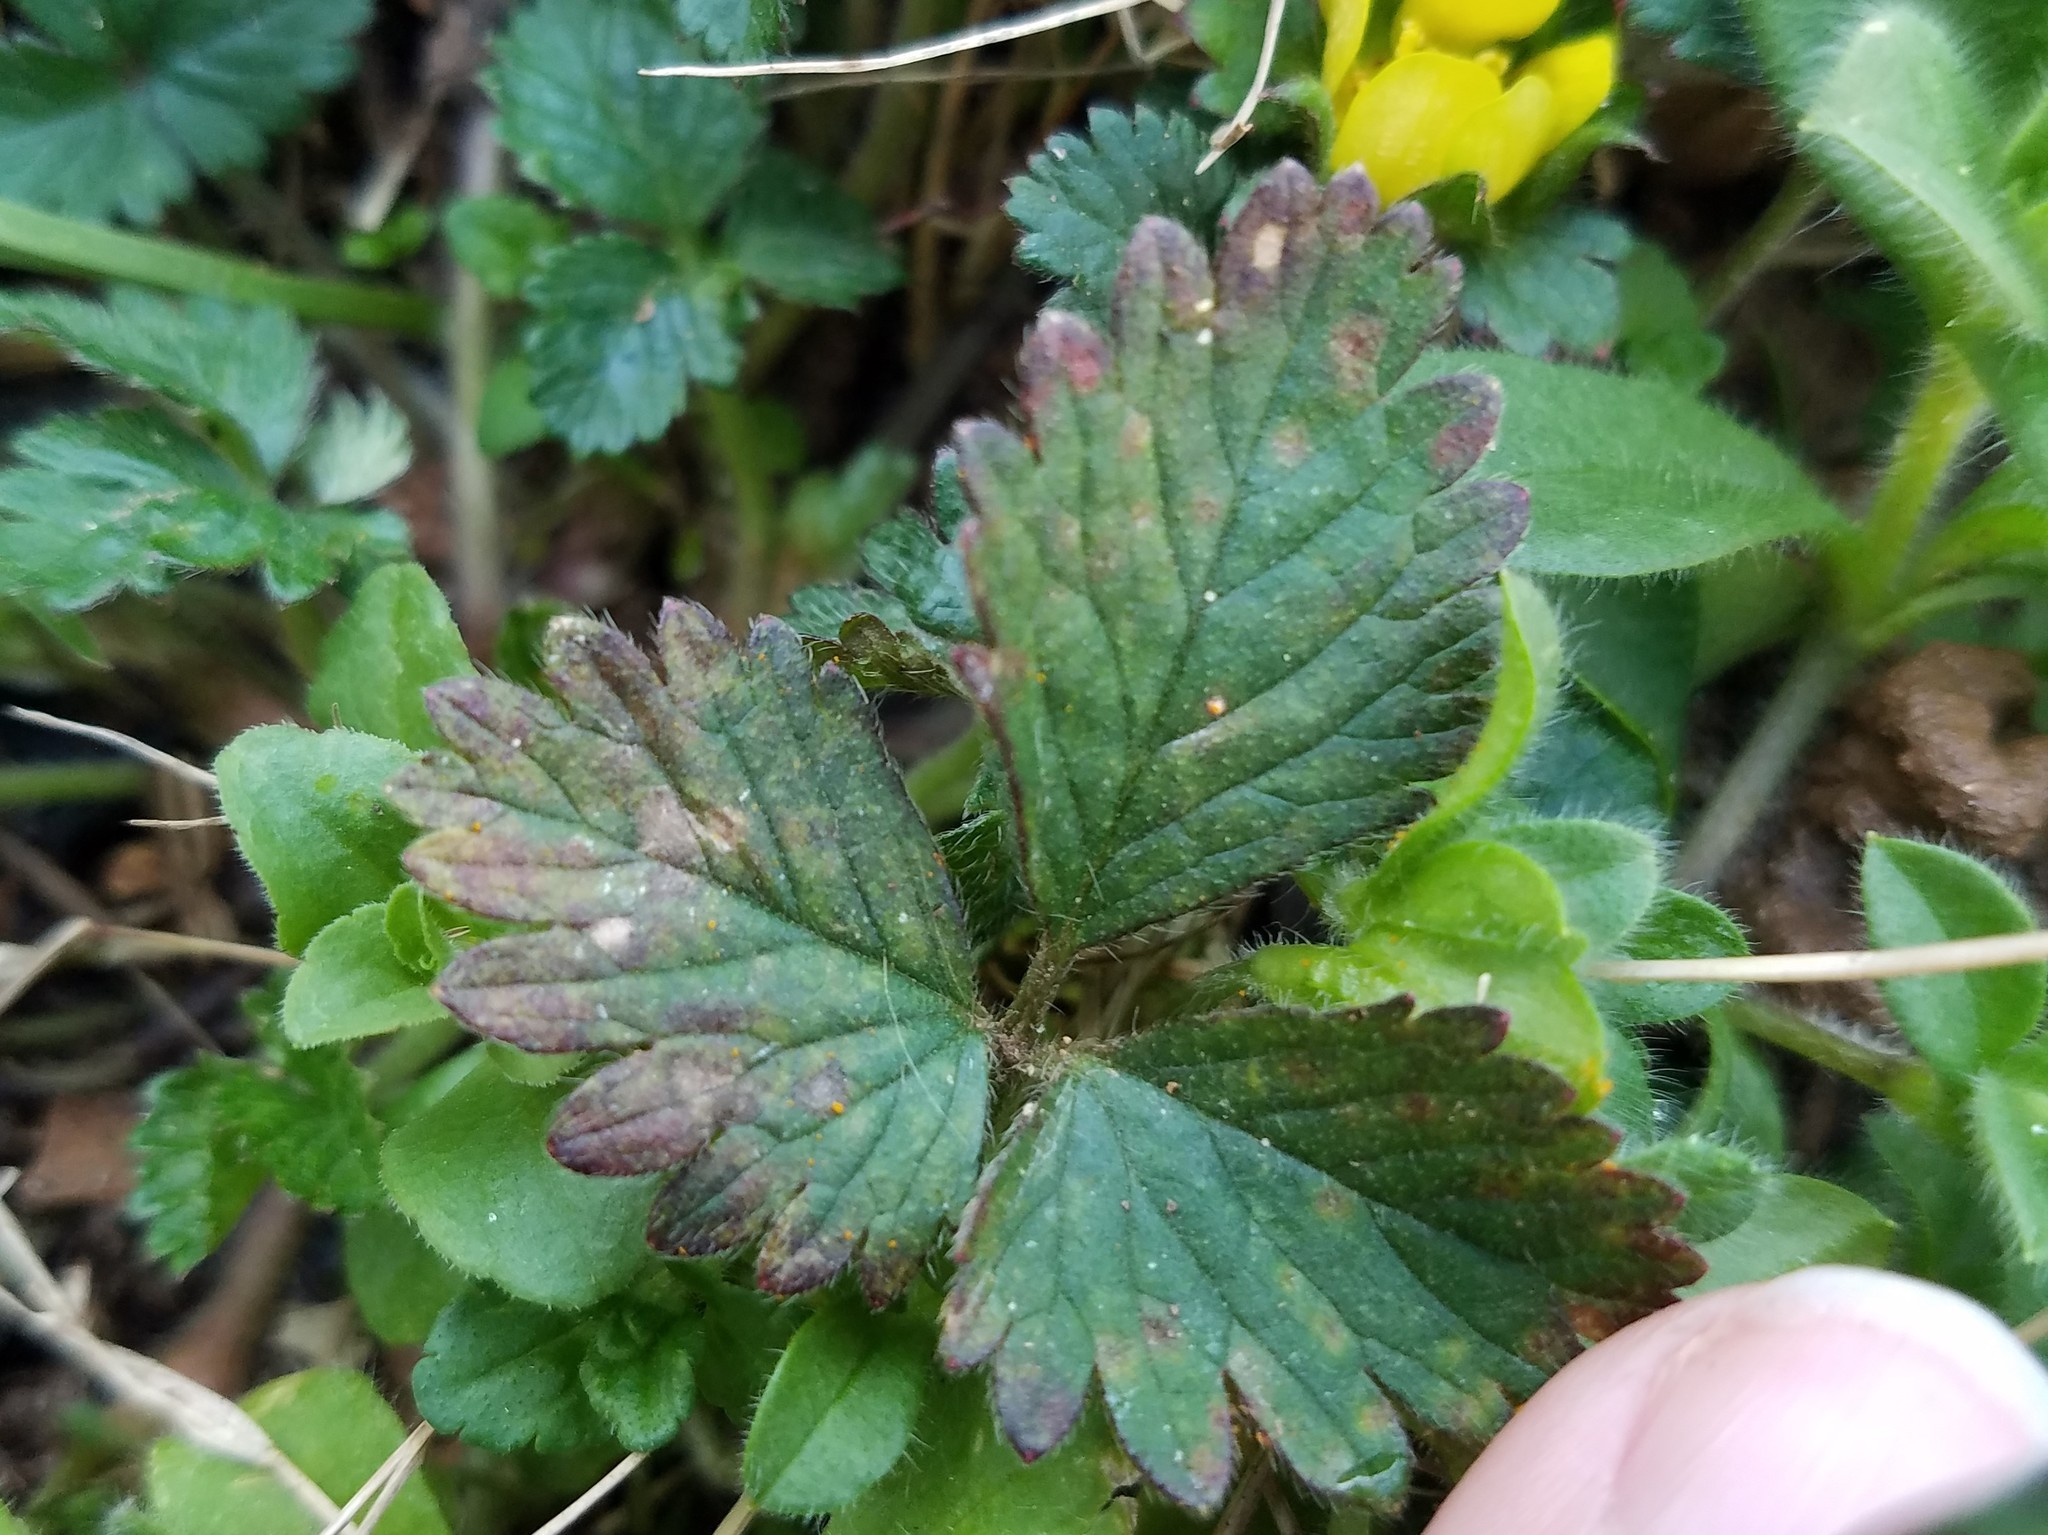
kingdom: Plantae
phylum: Tracheophyta
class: Magnoliopsida
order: Rosales
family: Rosaceae
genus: Potentilla
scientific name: Potentilla indica
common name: Yellow-flowered strawberry
